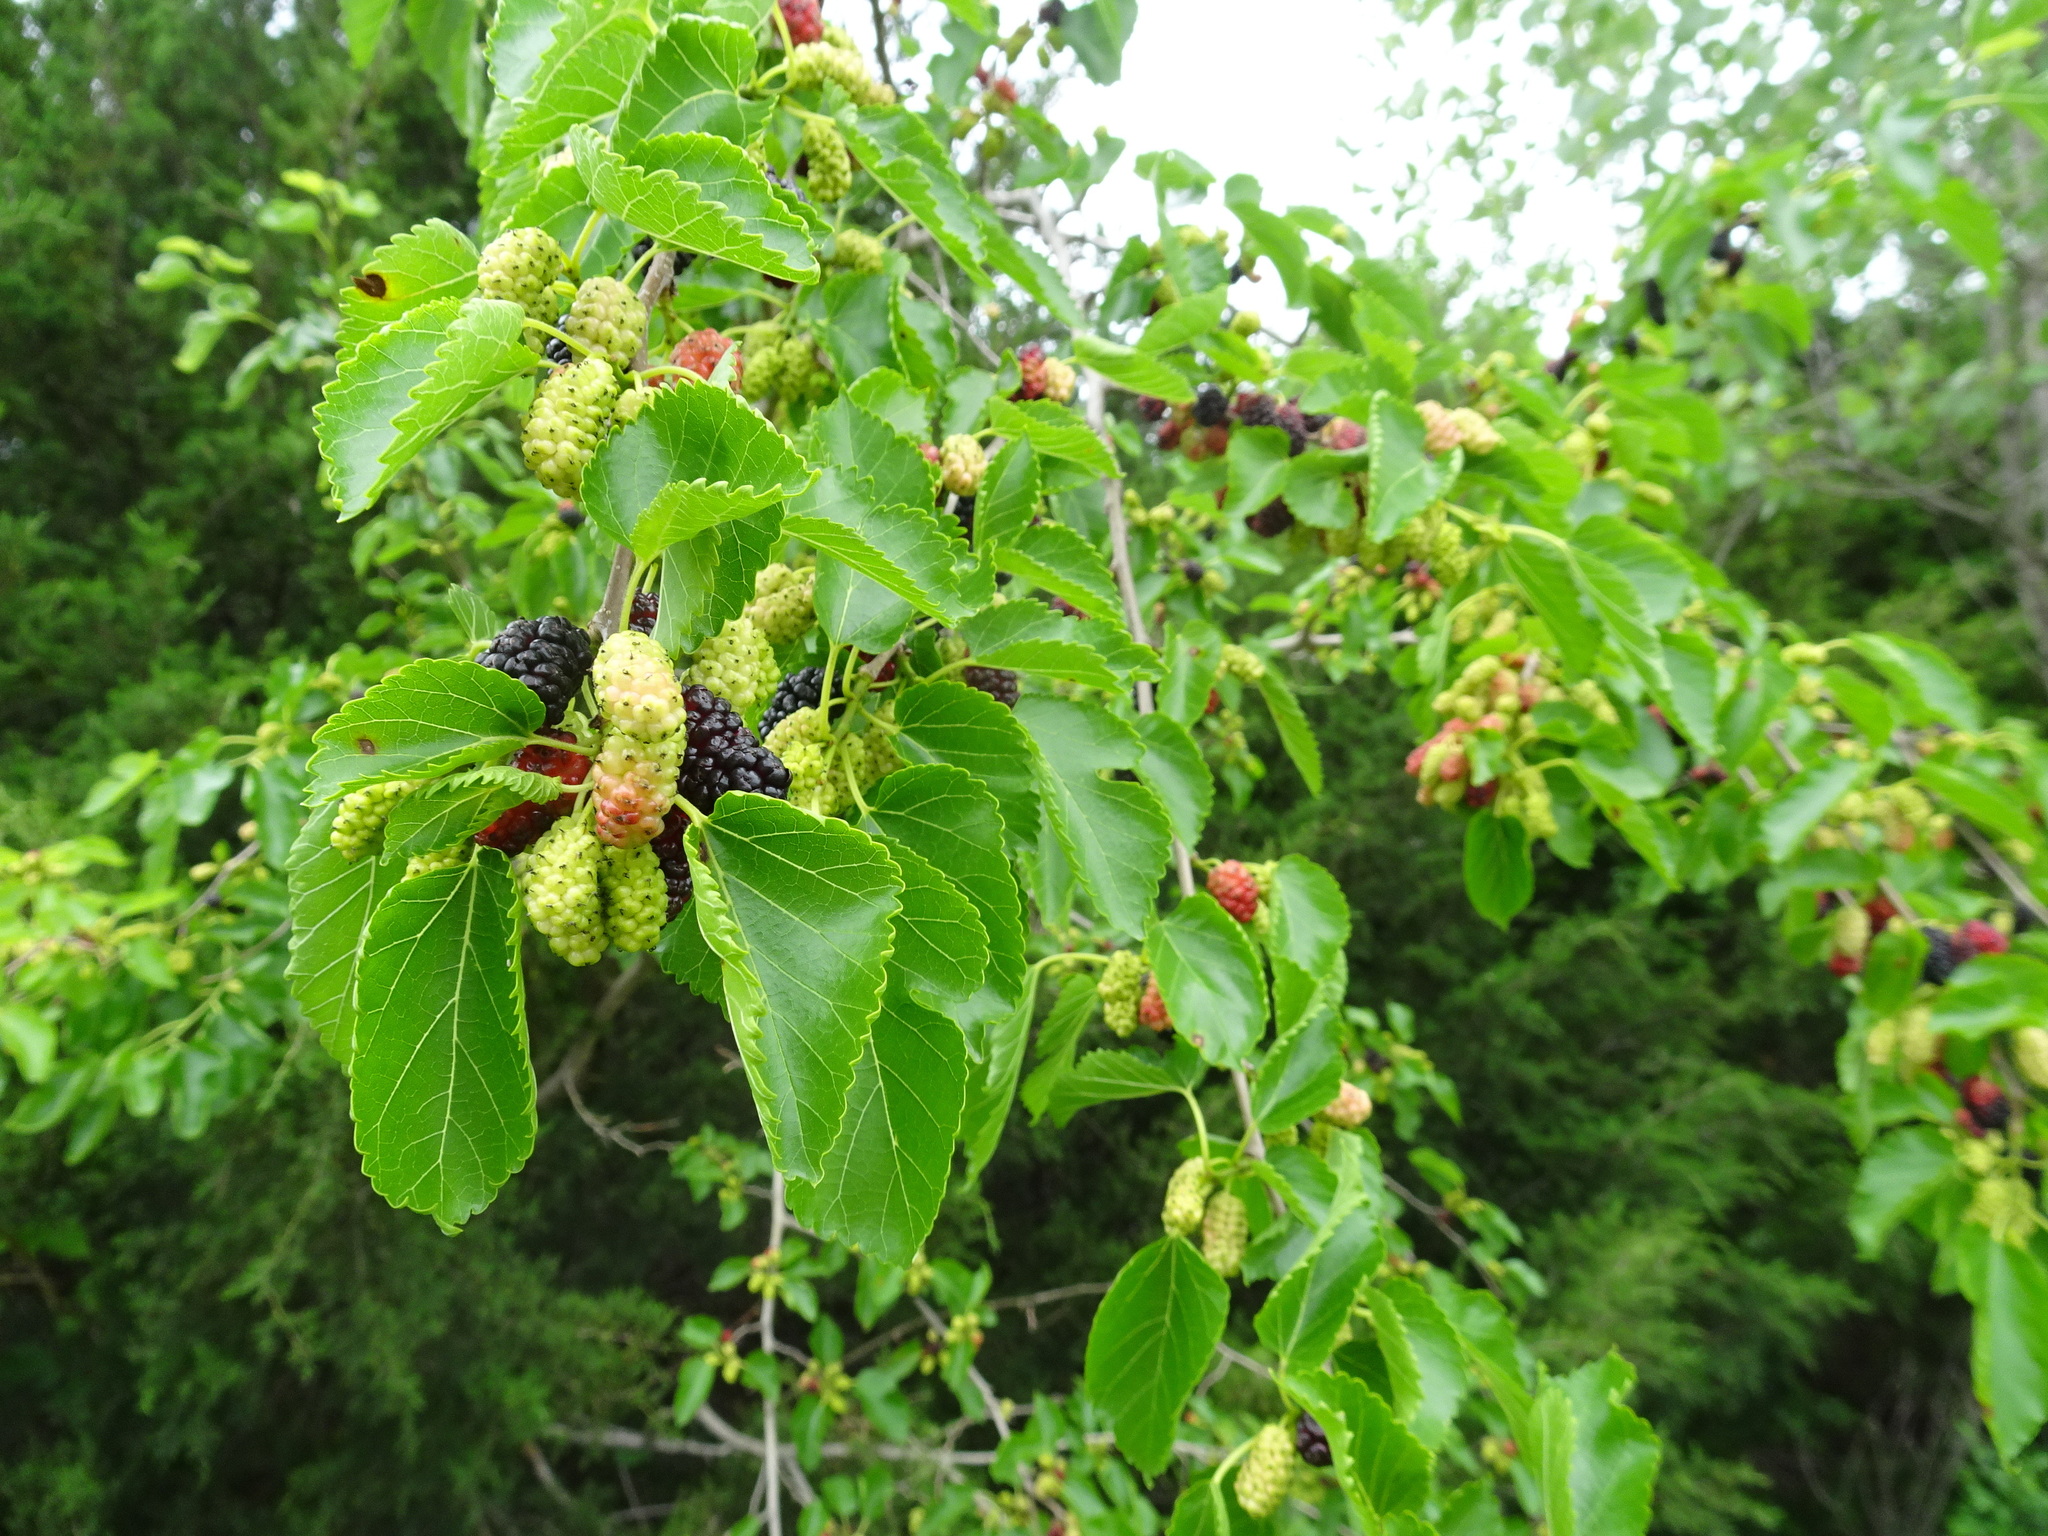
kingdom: Plantae
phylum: Tracheophyta
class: Magnoliopsida
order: Rosales
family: Moraceae
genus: Morus
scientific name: Morus alba
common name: White mulberry
